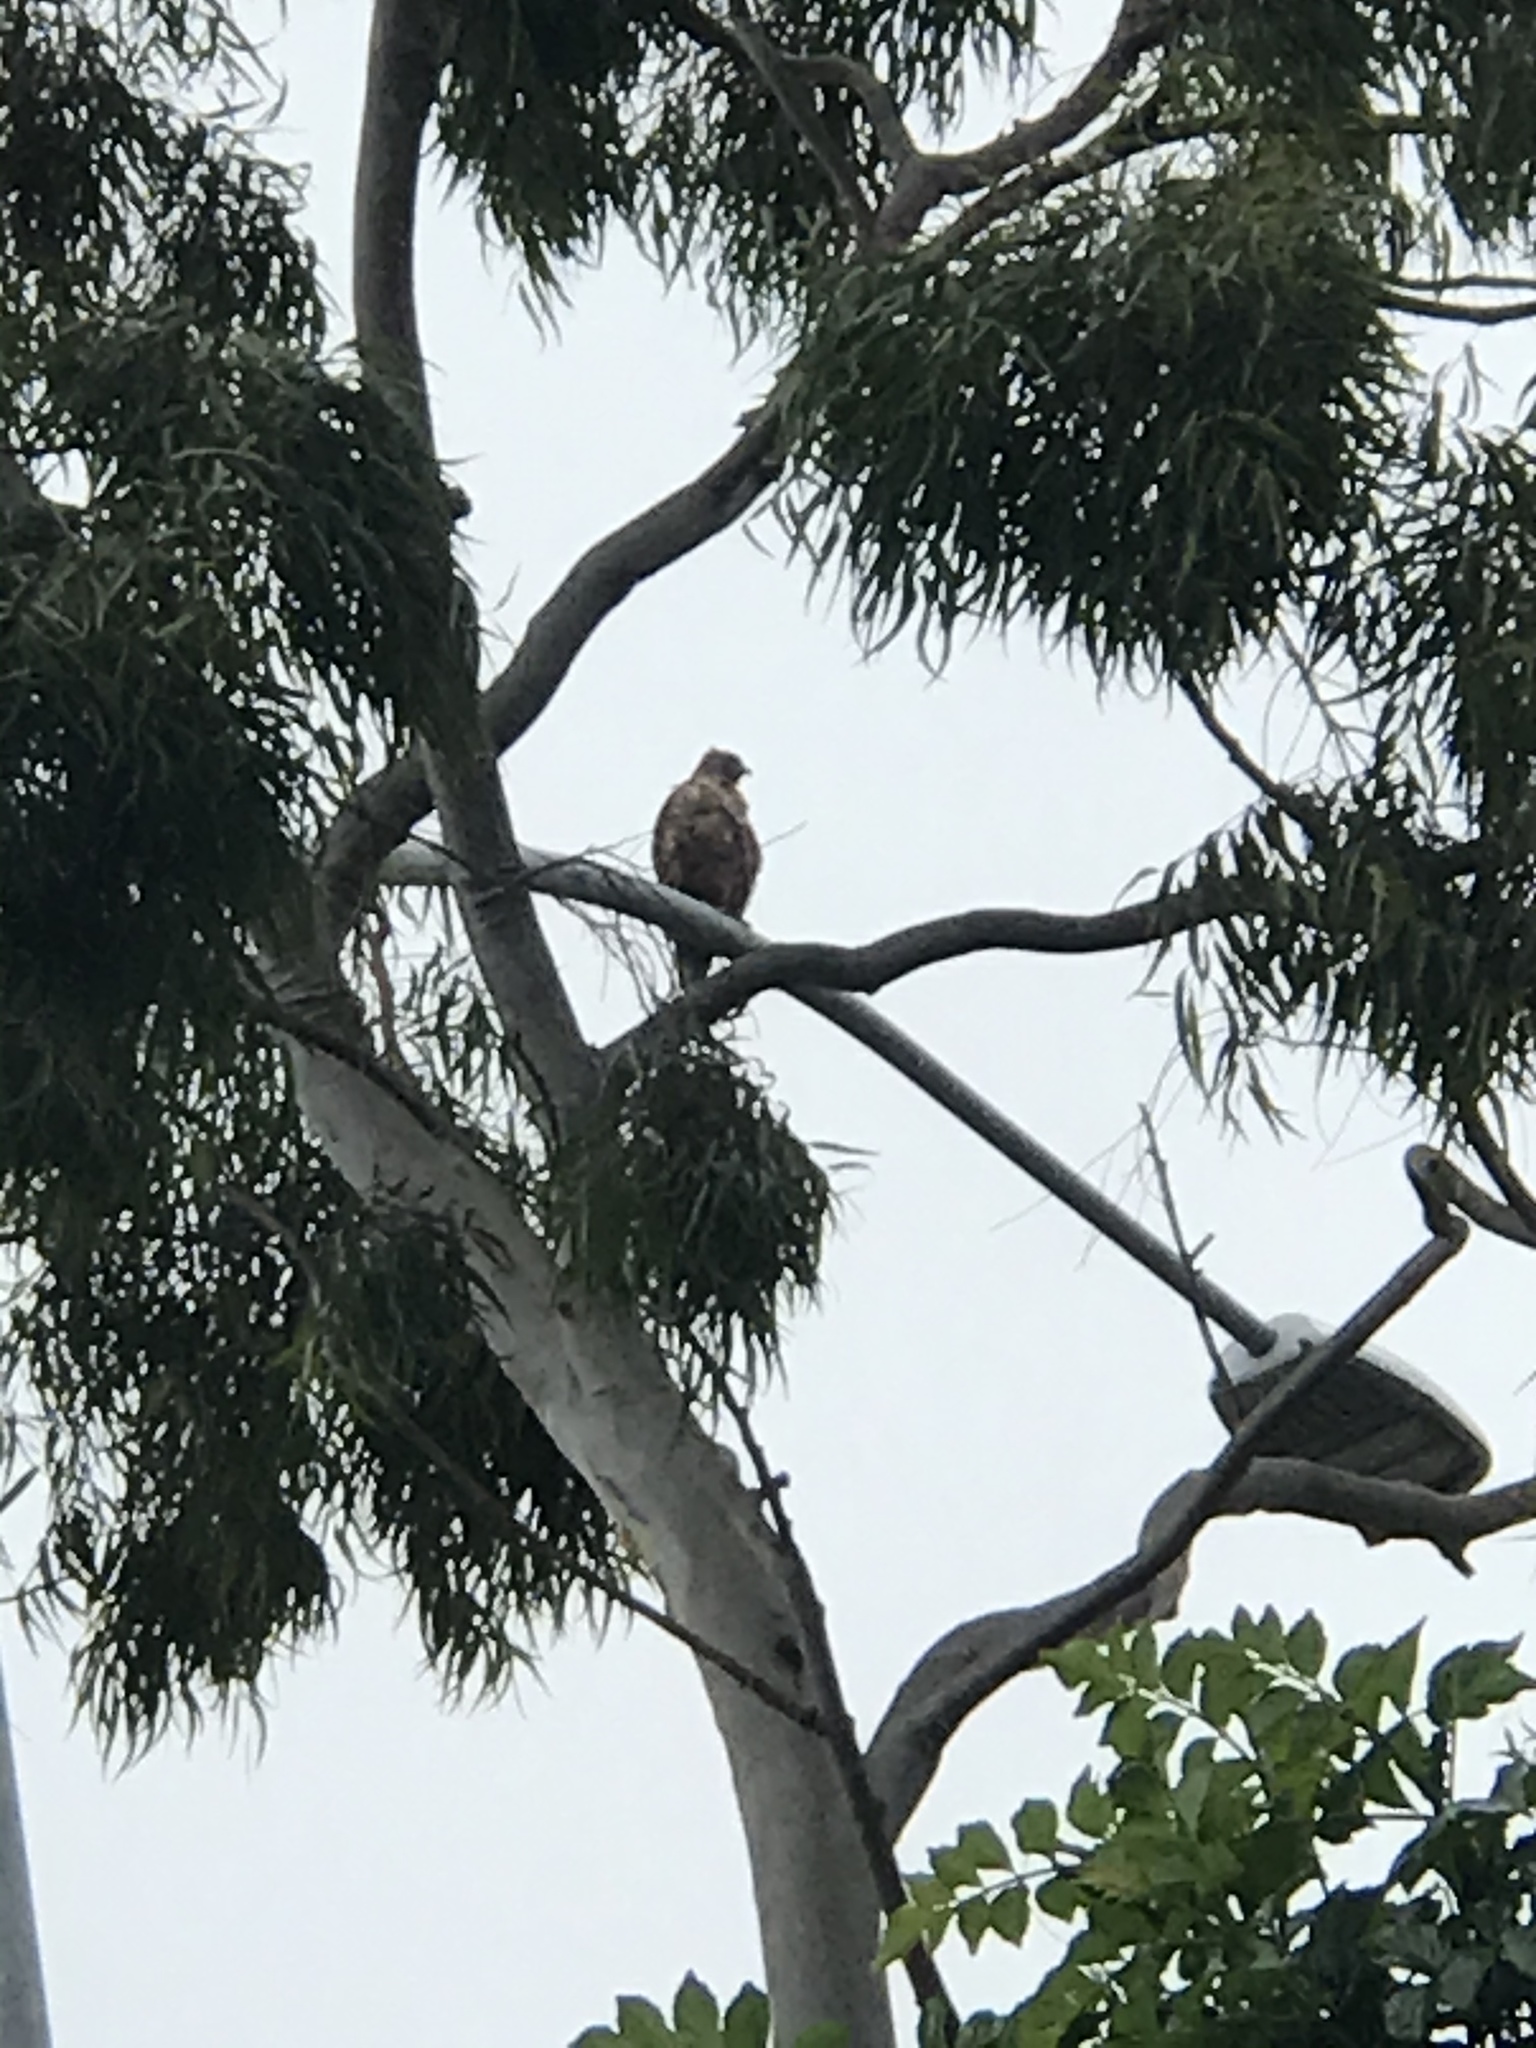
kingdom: Animalia
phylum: Chordata
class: Aves
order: Accipitriformes
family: Accipitridae
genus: Buteo
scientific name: Buteo jamaicensis
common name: Red-tailed hawk
